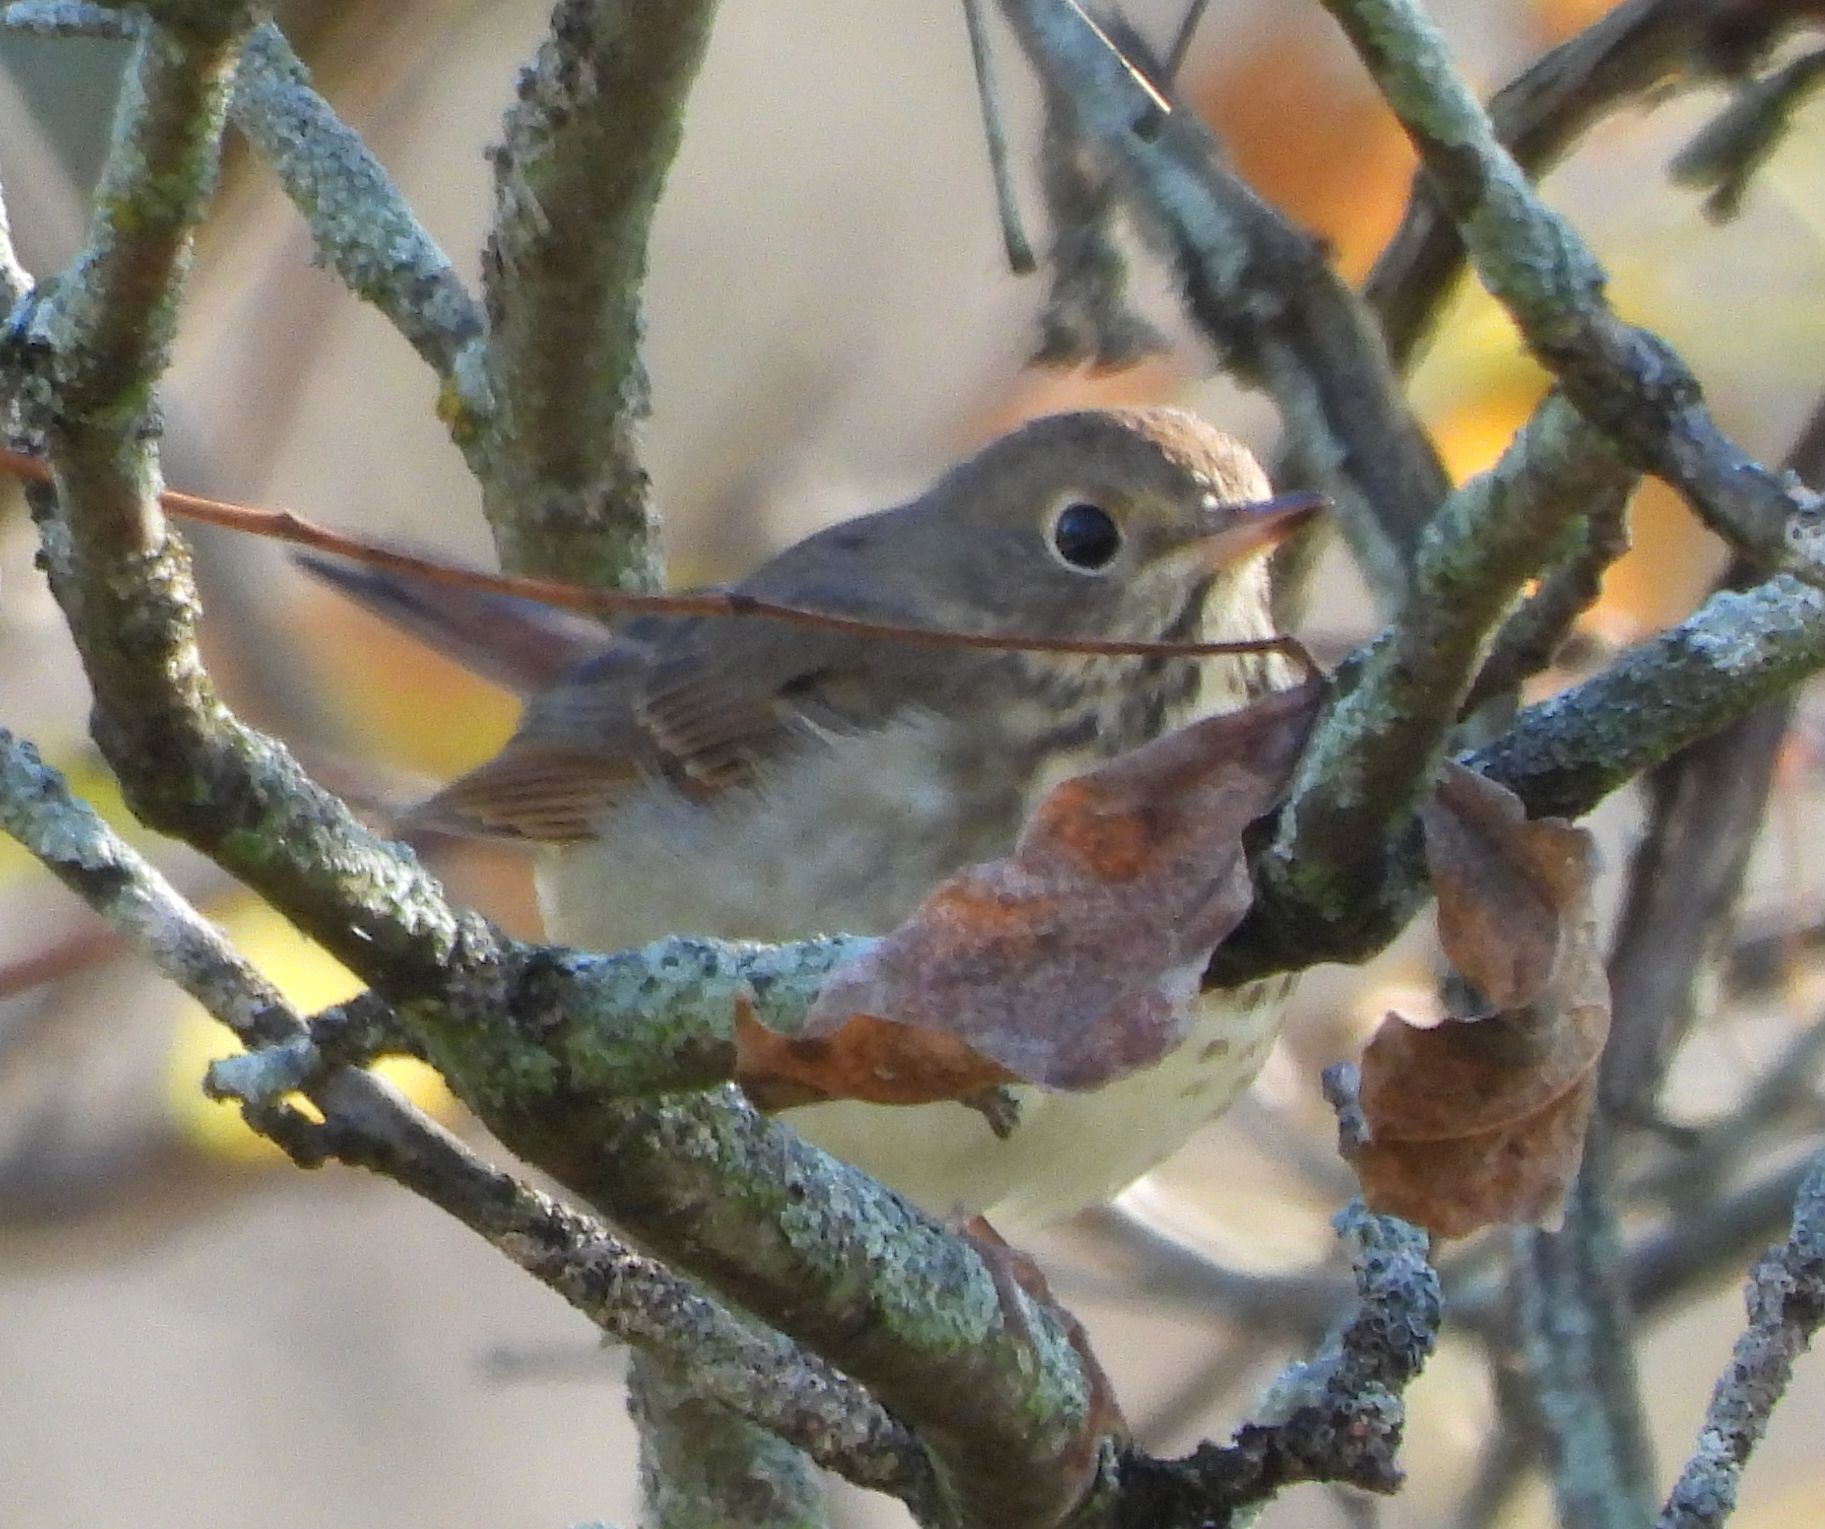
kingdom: Animalia
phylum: Chordata
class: Aves
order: Passeriformes
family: Turdidae
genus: Catharus
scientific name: Catharus guttatus
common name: Hermit thrush
